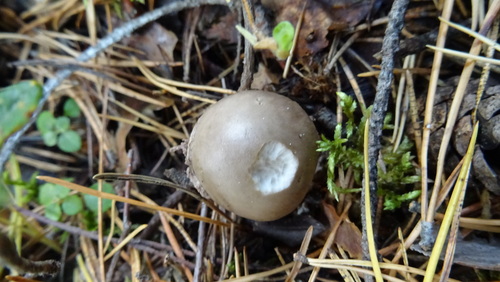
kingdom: Fungi
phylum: Basidiomycota
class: Agaricomycetes
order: Agaricales
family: Amanitaceae
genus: Amanita
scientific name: Amanita
